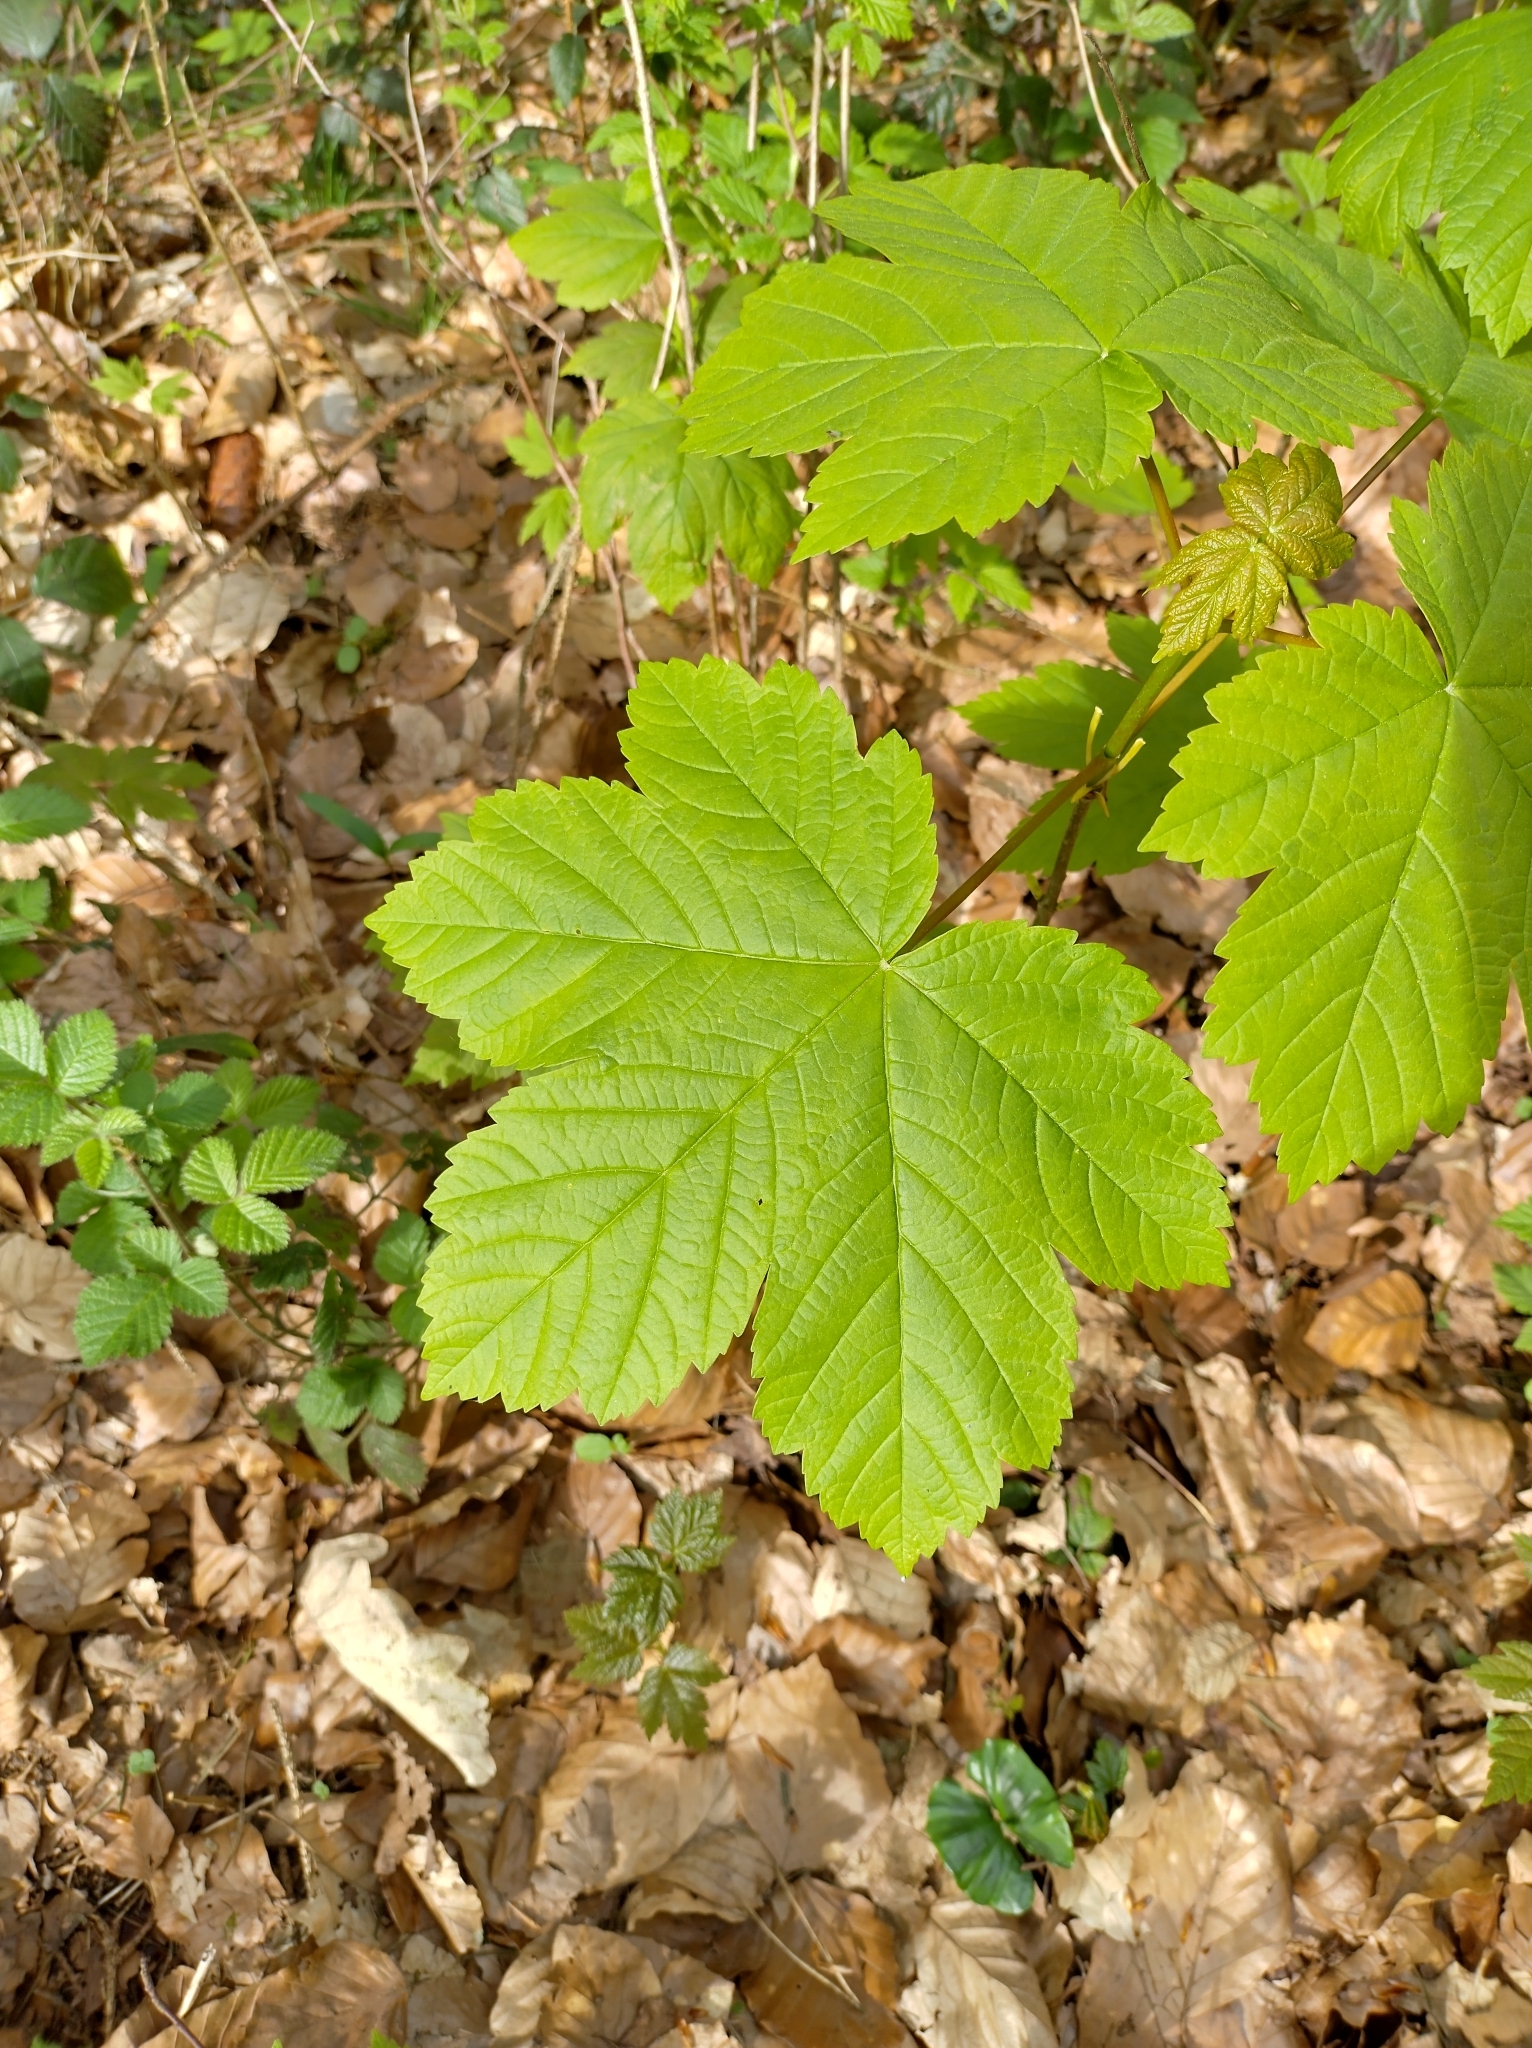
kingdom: Plantae
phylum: Tracheophyta
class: Magnoliopsida
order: Sapindales
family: Sapindaceae
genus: Acer
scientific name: Acer pseudoplatanus
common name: Sycamore
